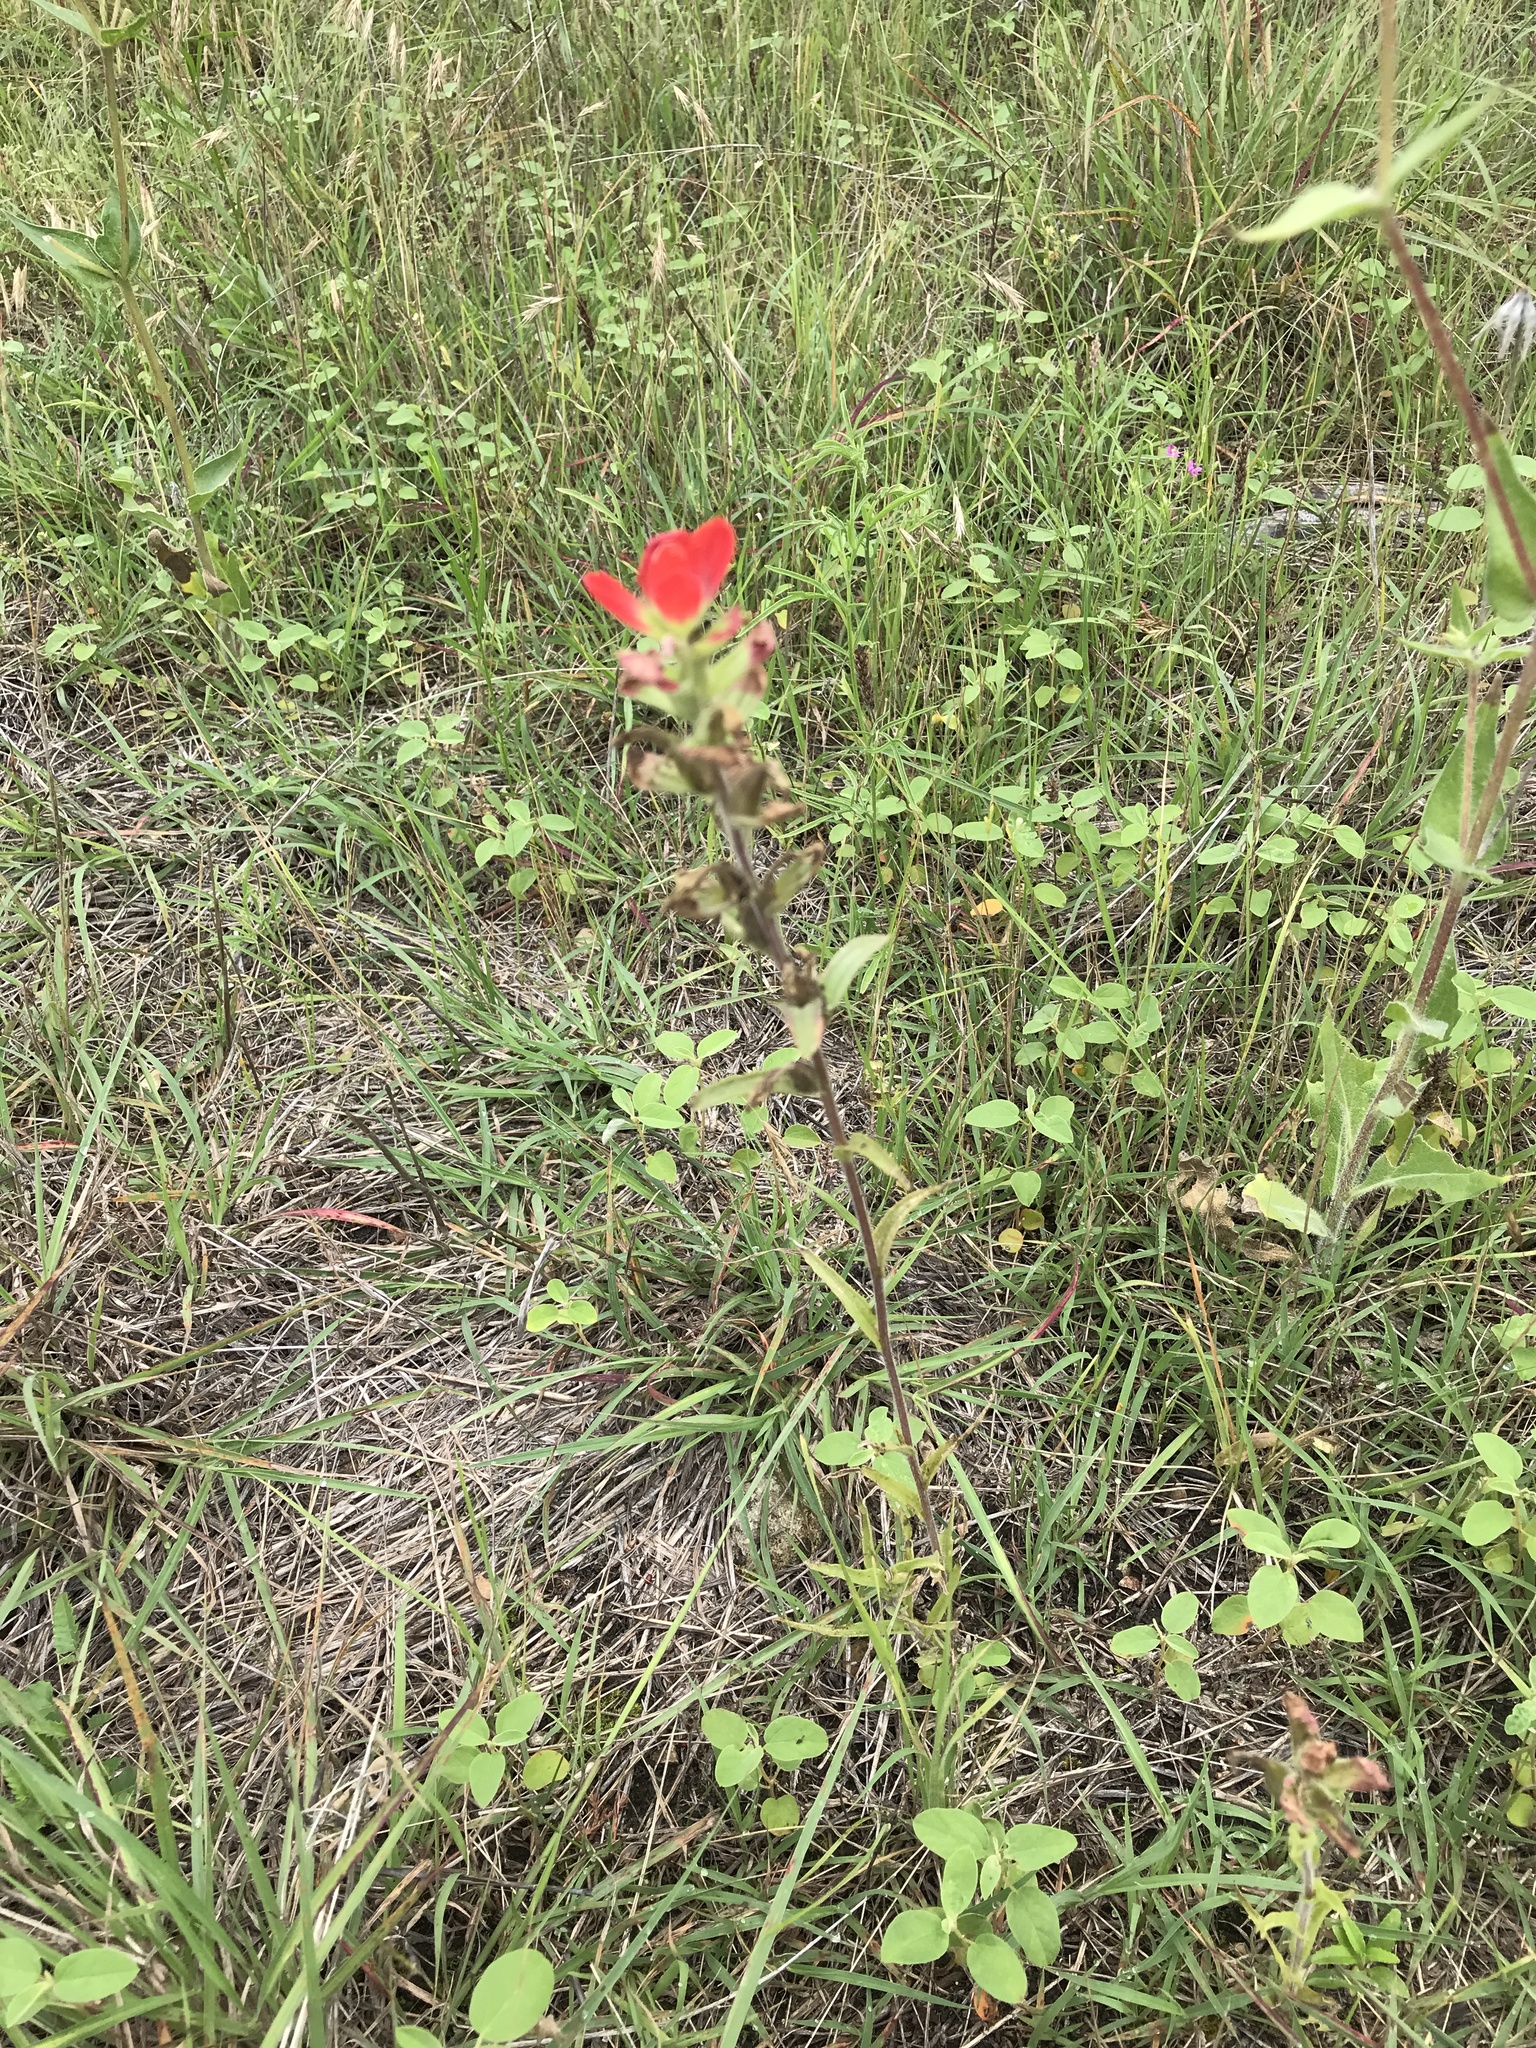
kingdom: Plantae
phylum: Tracheophyta
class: Magnoliopsida
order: Lamiales
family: Orobanchaceae
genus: Castilleja
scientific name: Castilleja indivisa
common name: Texas paintbrush
